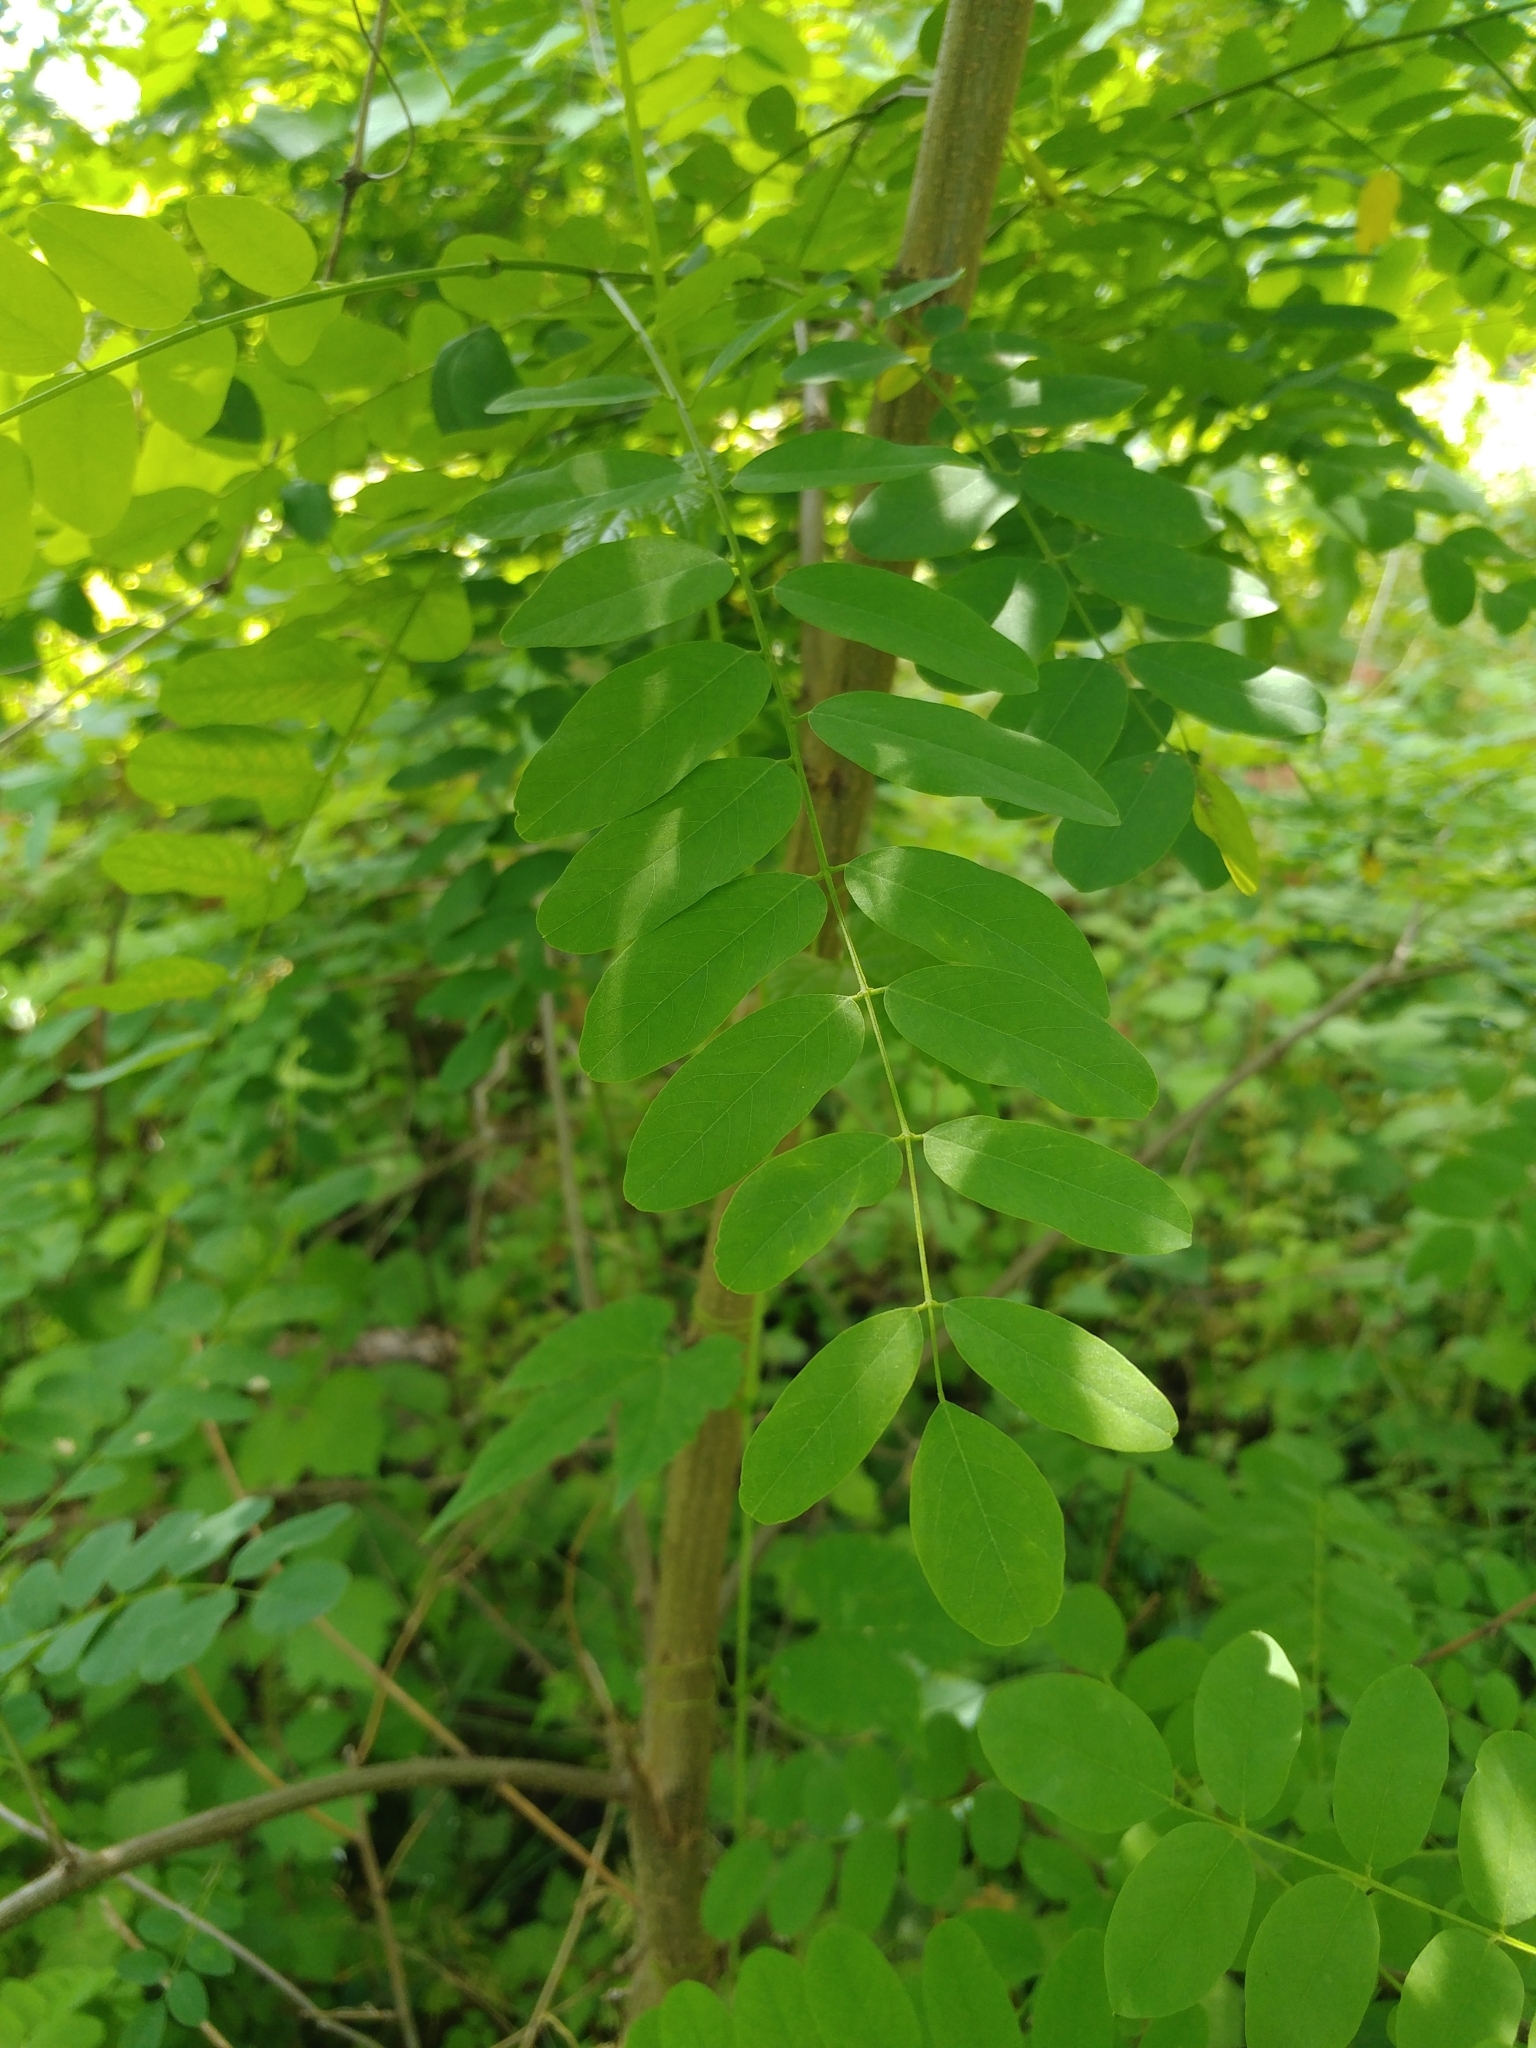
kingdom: Plantae
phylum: Tracheophyta
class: Magnoliopsida
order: Fabales
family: Fabaceae
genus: Robinia
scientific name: Robinia pseudoacacia
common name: Black locust
